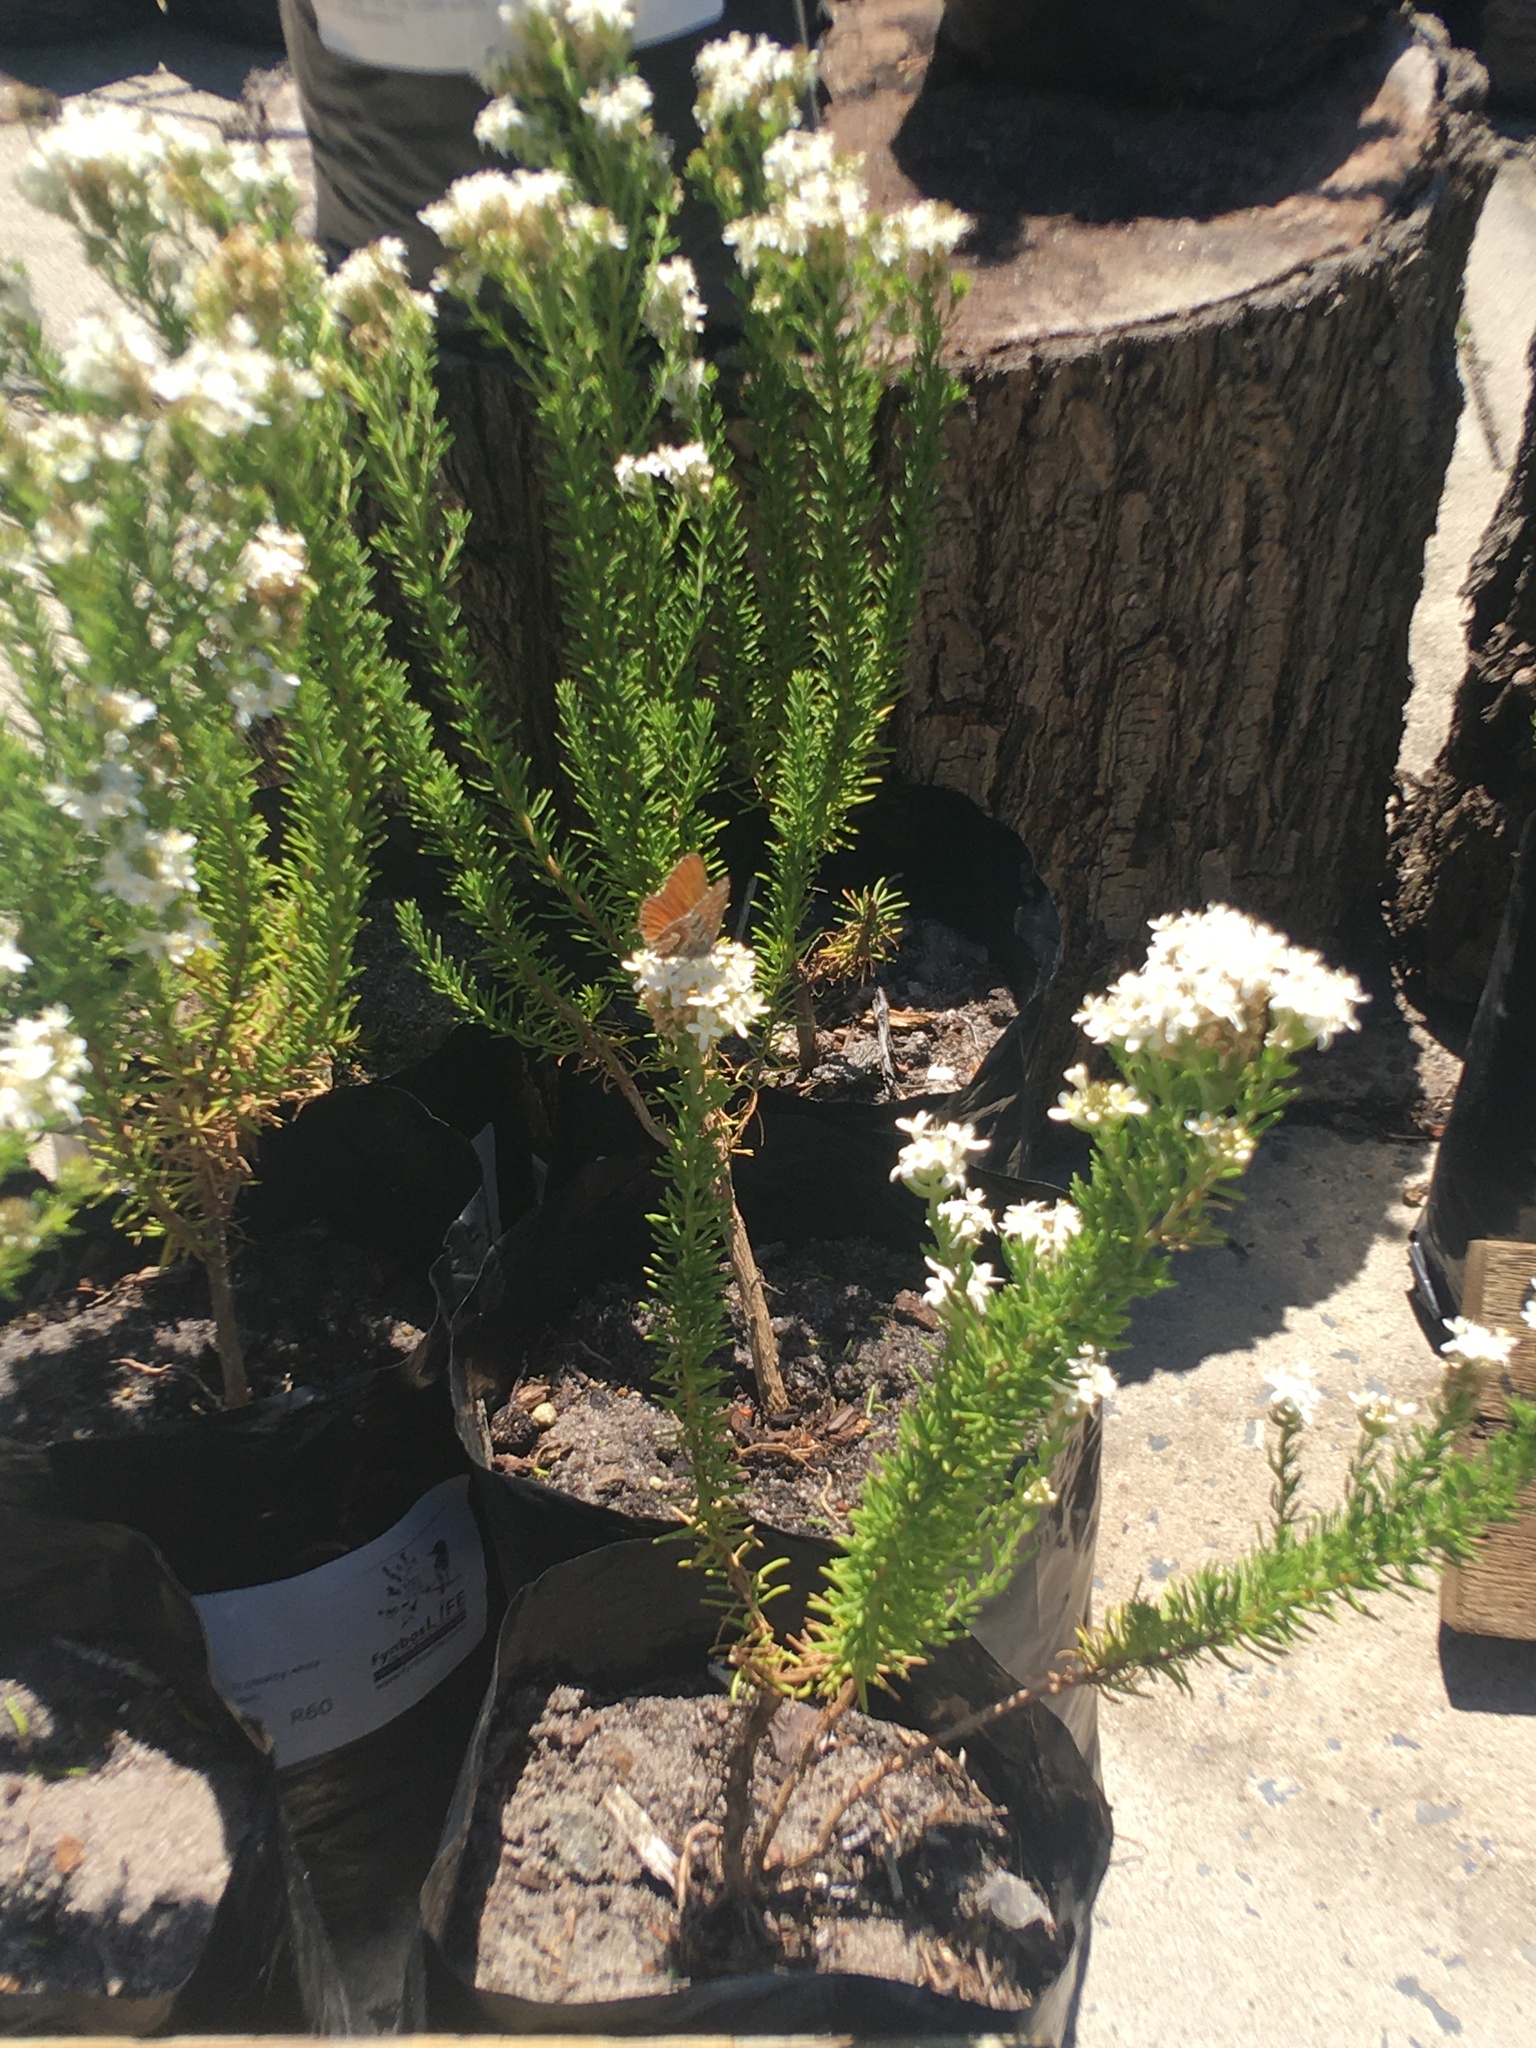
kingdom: Animalia
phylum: Arthropoda
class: Insecta
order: Lepidoptera
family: Lycaenidae
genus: Cacyreus
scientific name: Cacyreus marshalli
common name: Geranium bronze
